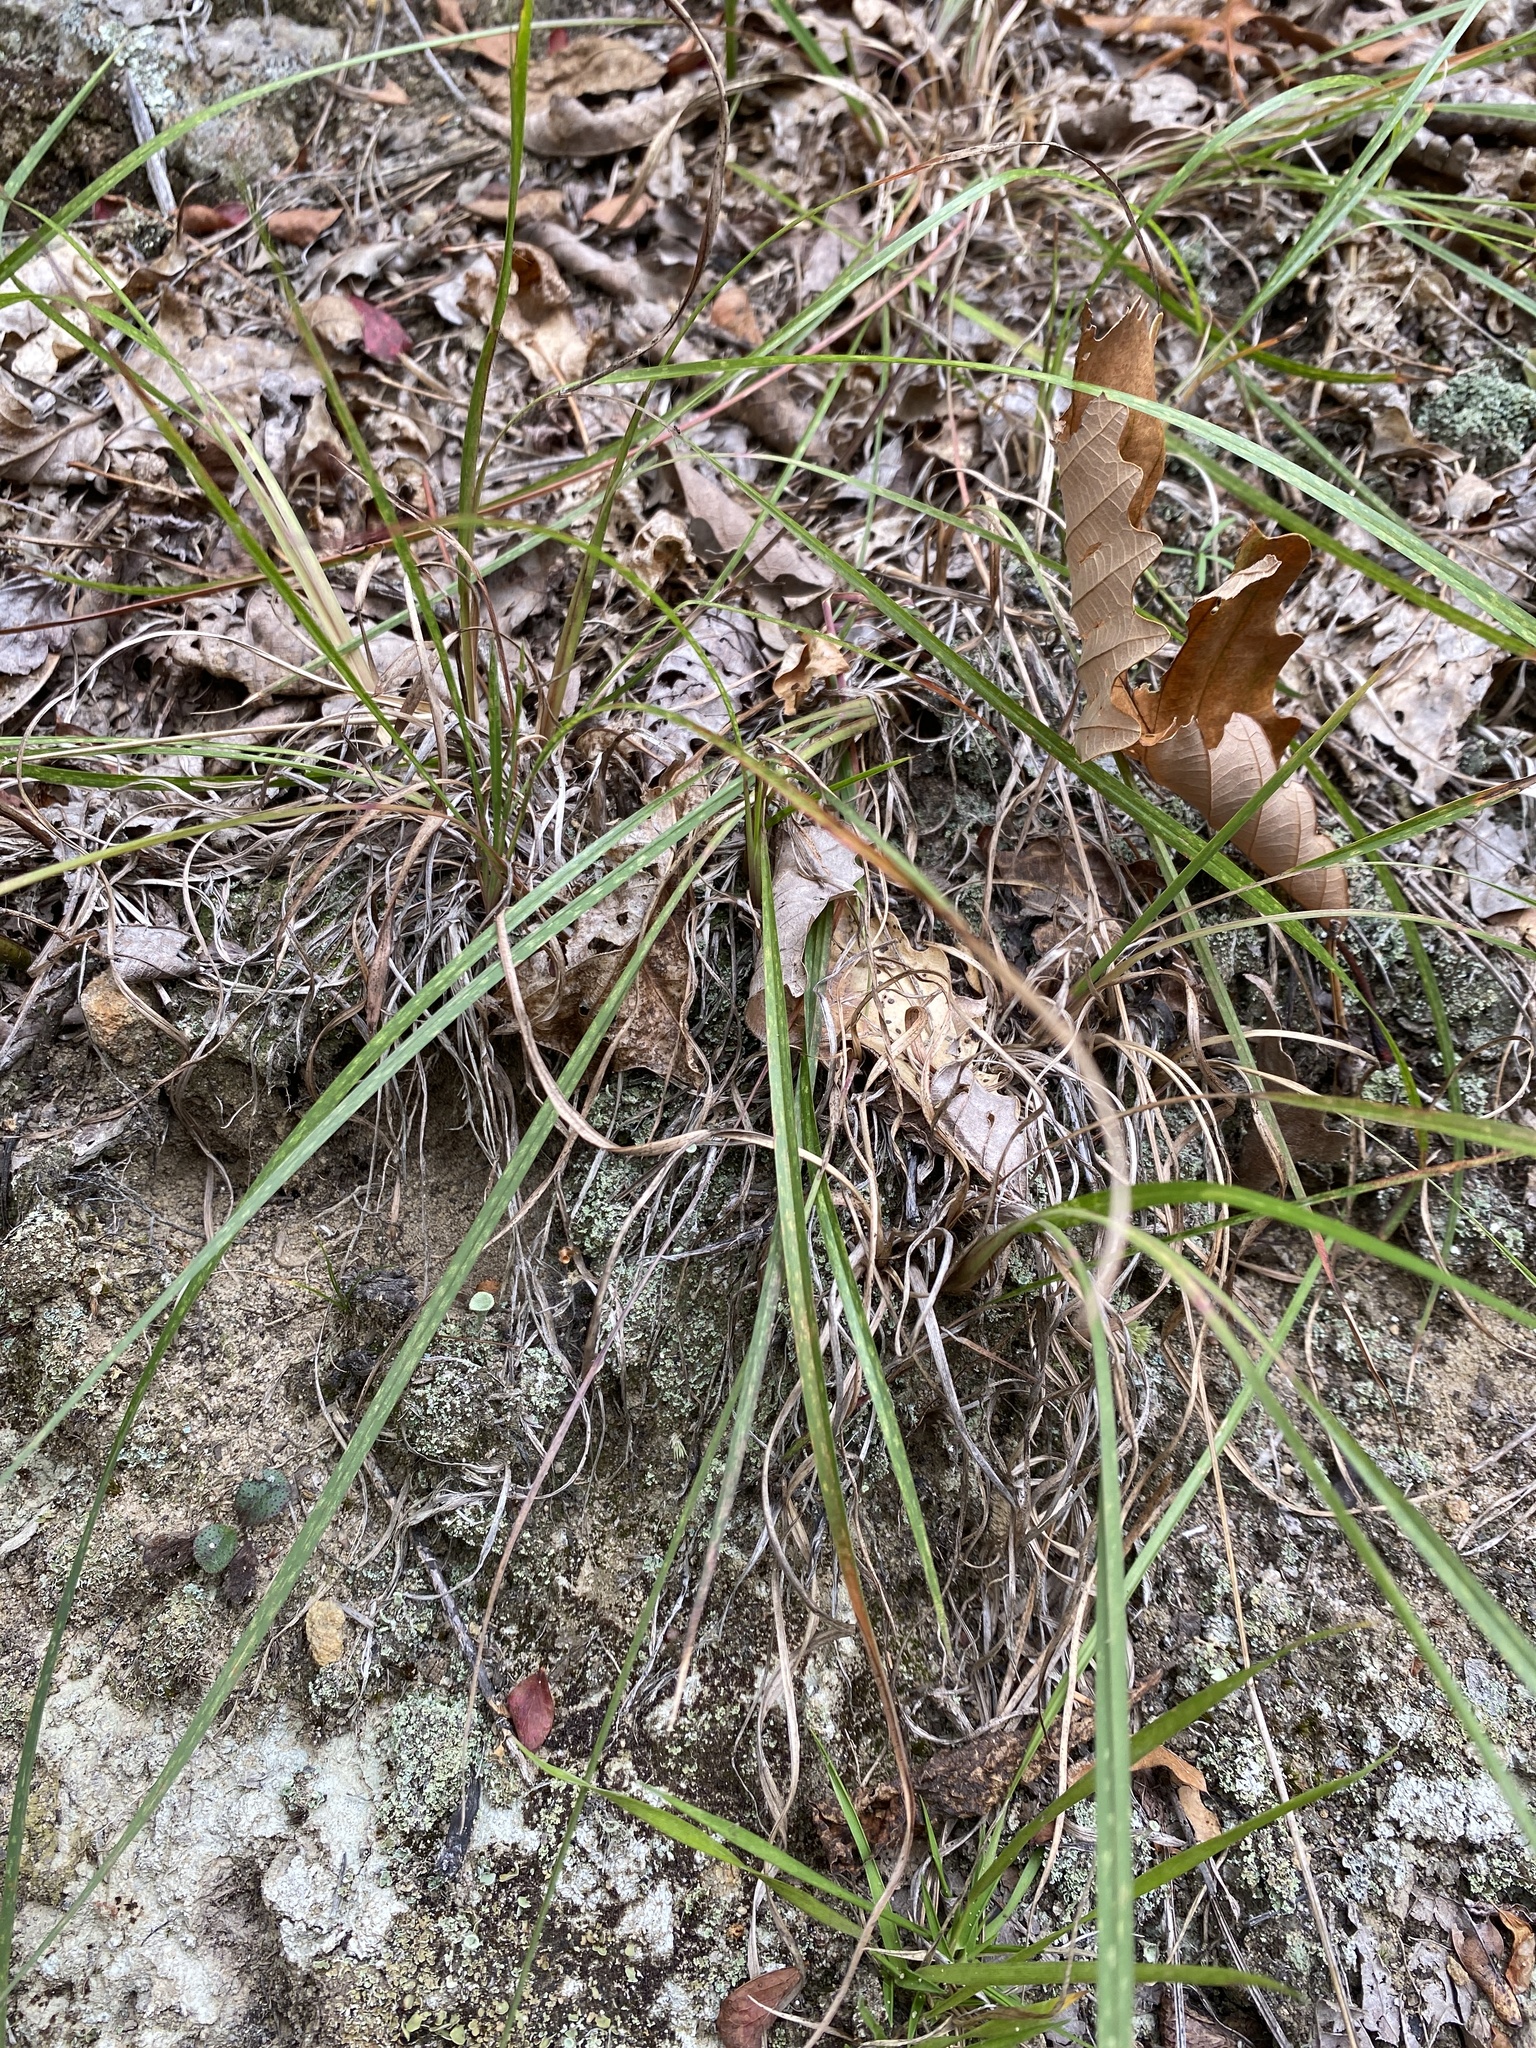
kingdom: Plantae
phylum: Tracheophyta
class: Liliopsida
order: Poales
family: Poaceae
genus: Schizachyrium
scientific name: Schizachyrium scoparium
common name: Little bluestem
